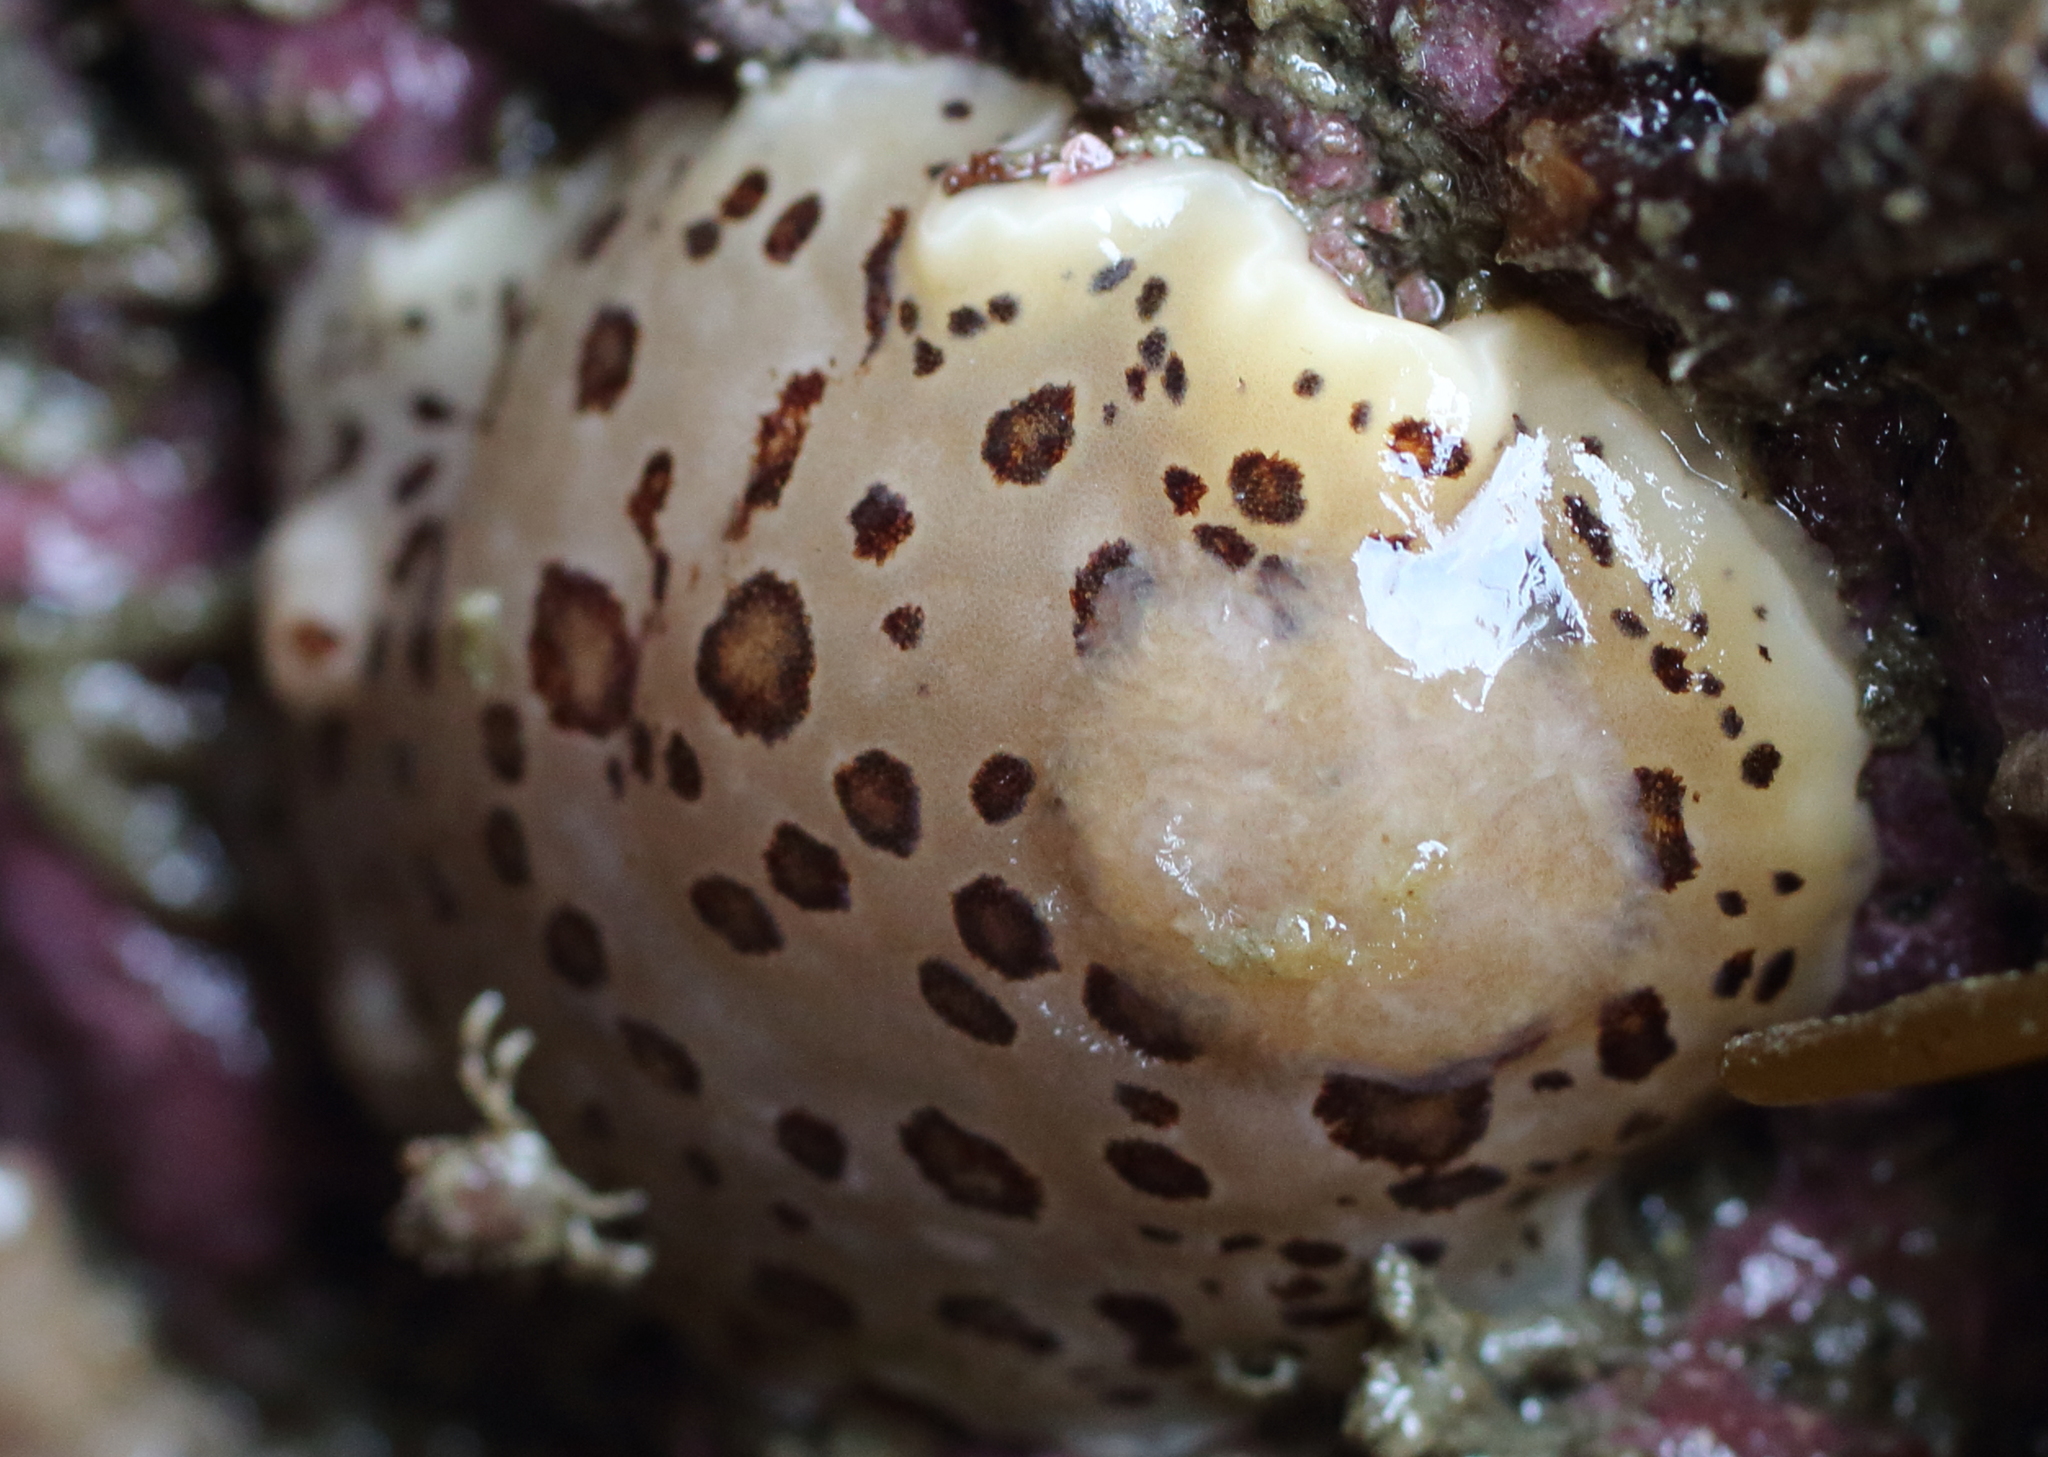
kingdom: Animalia
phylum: Mollusca
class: Gastropoda
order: Nudibranchia
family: Discodorididae
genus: Diaulula
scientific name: Diaulula odonoghuei
